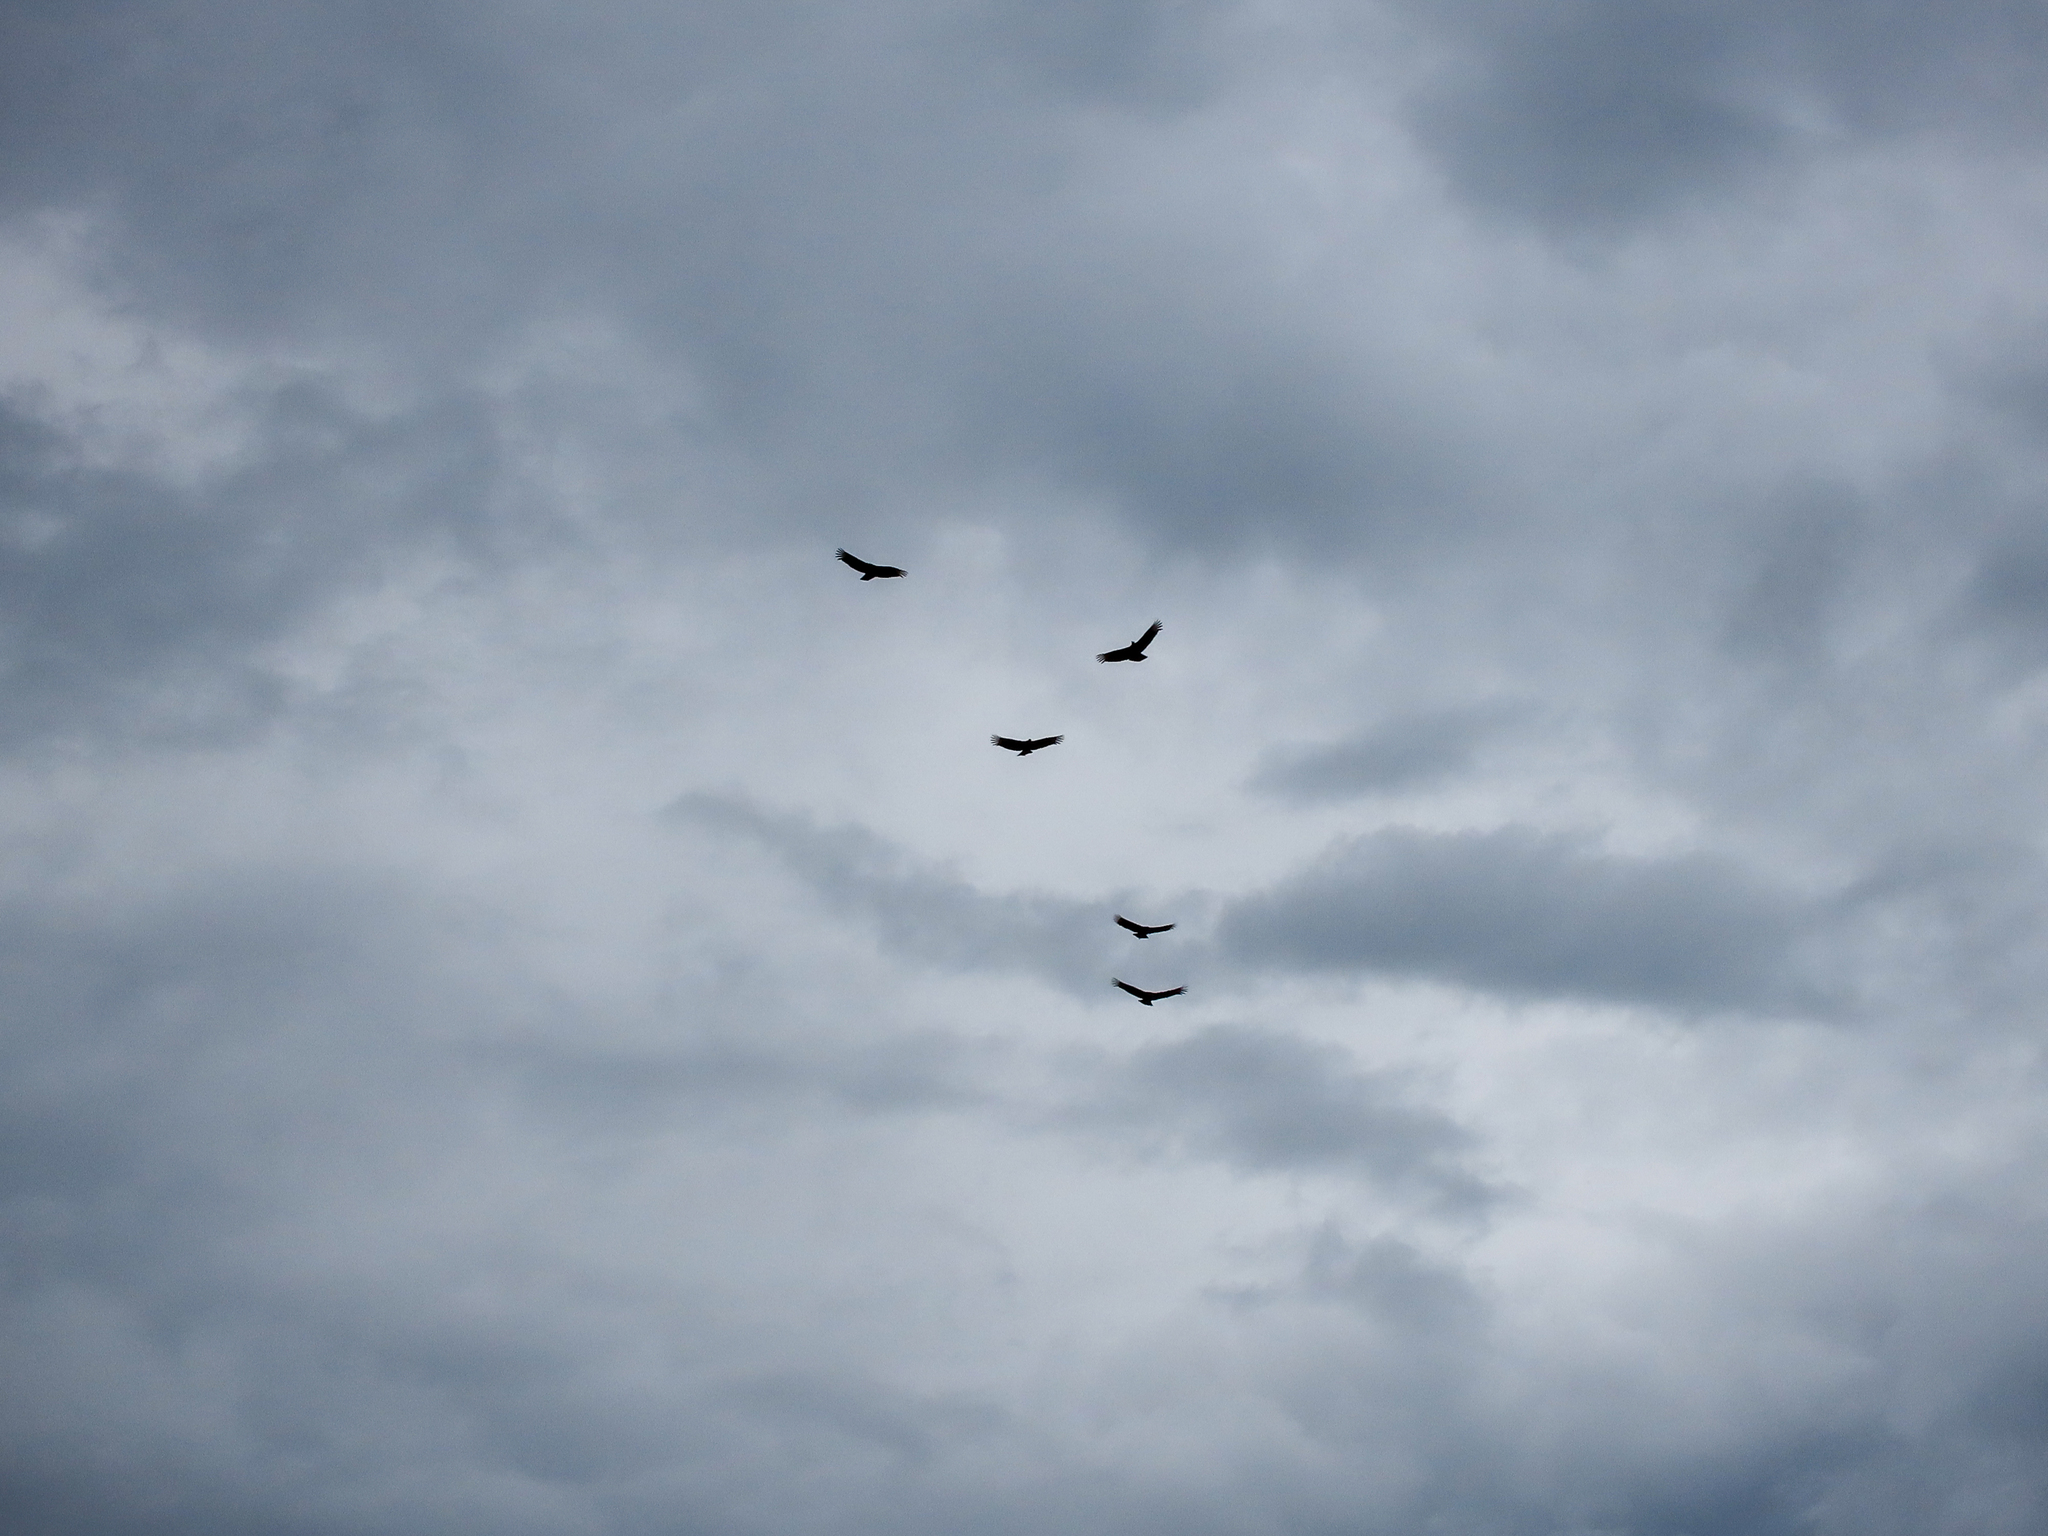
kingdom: Animalia
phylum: Chordata
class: Aves
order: Accipitriformes
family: Cathartidae
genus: Coragyps
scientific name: Coragyps atratus
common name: Black vulture
